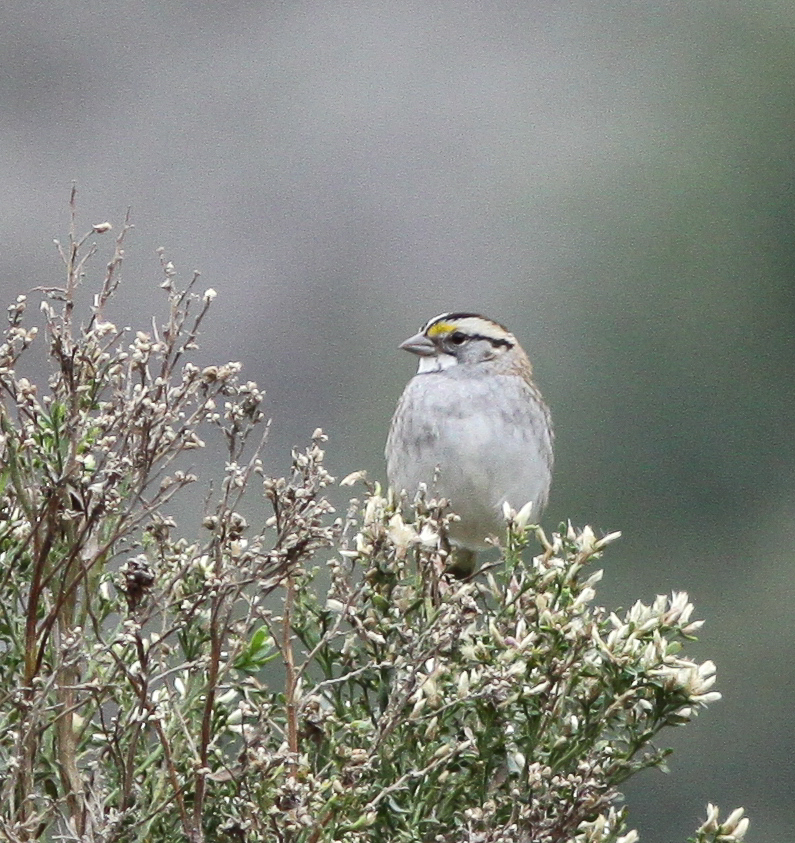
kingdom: Animalia
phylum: Chordata
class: Aves
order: Passeriformes
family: Passerellidae
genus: Zonotrichia
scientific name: Zonotrichia albicollis
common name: White-throated sparrow
